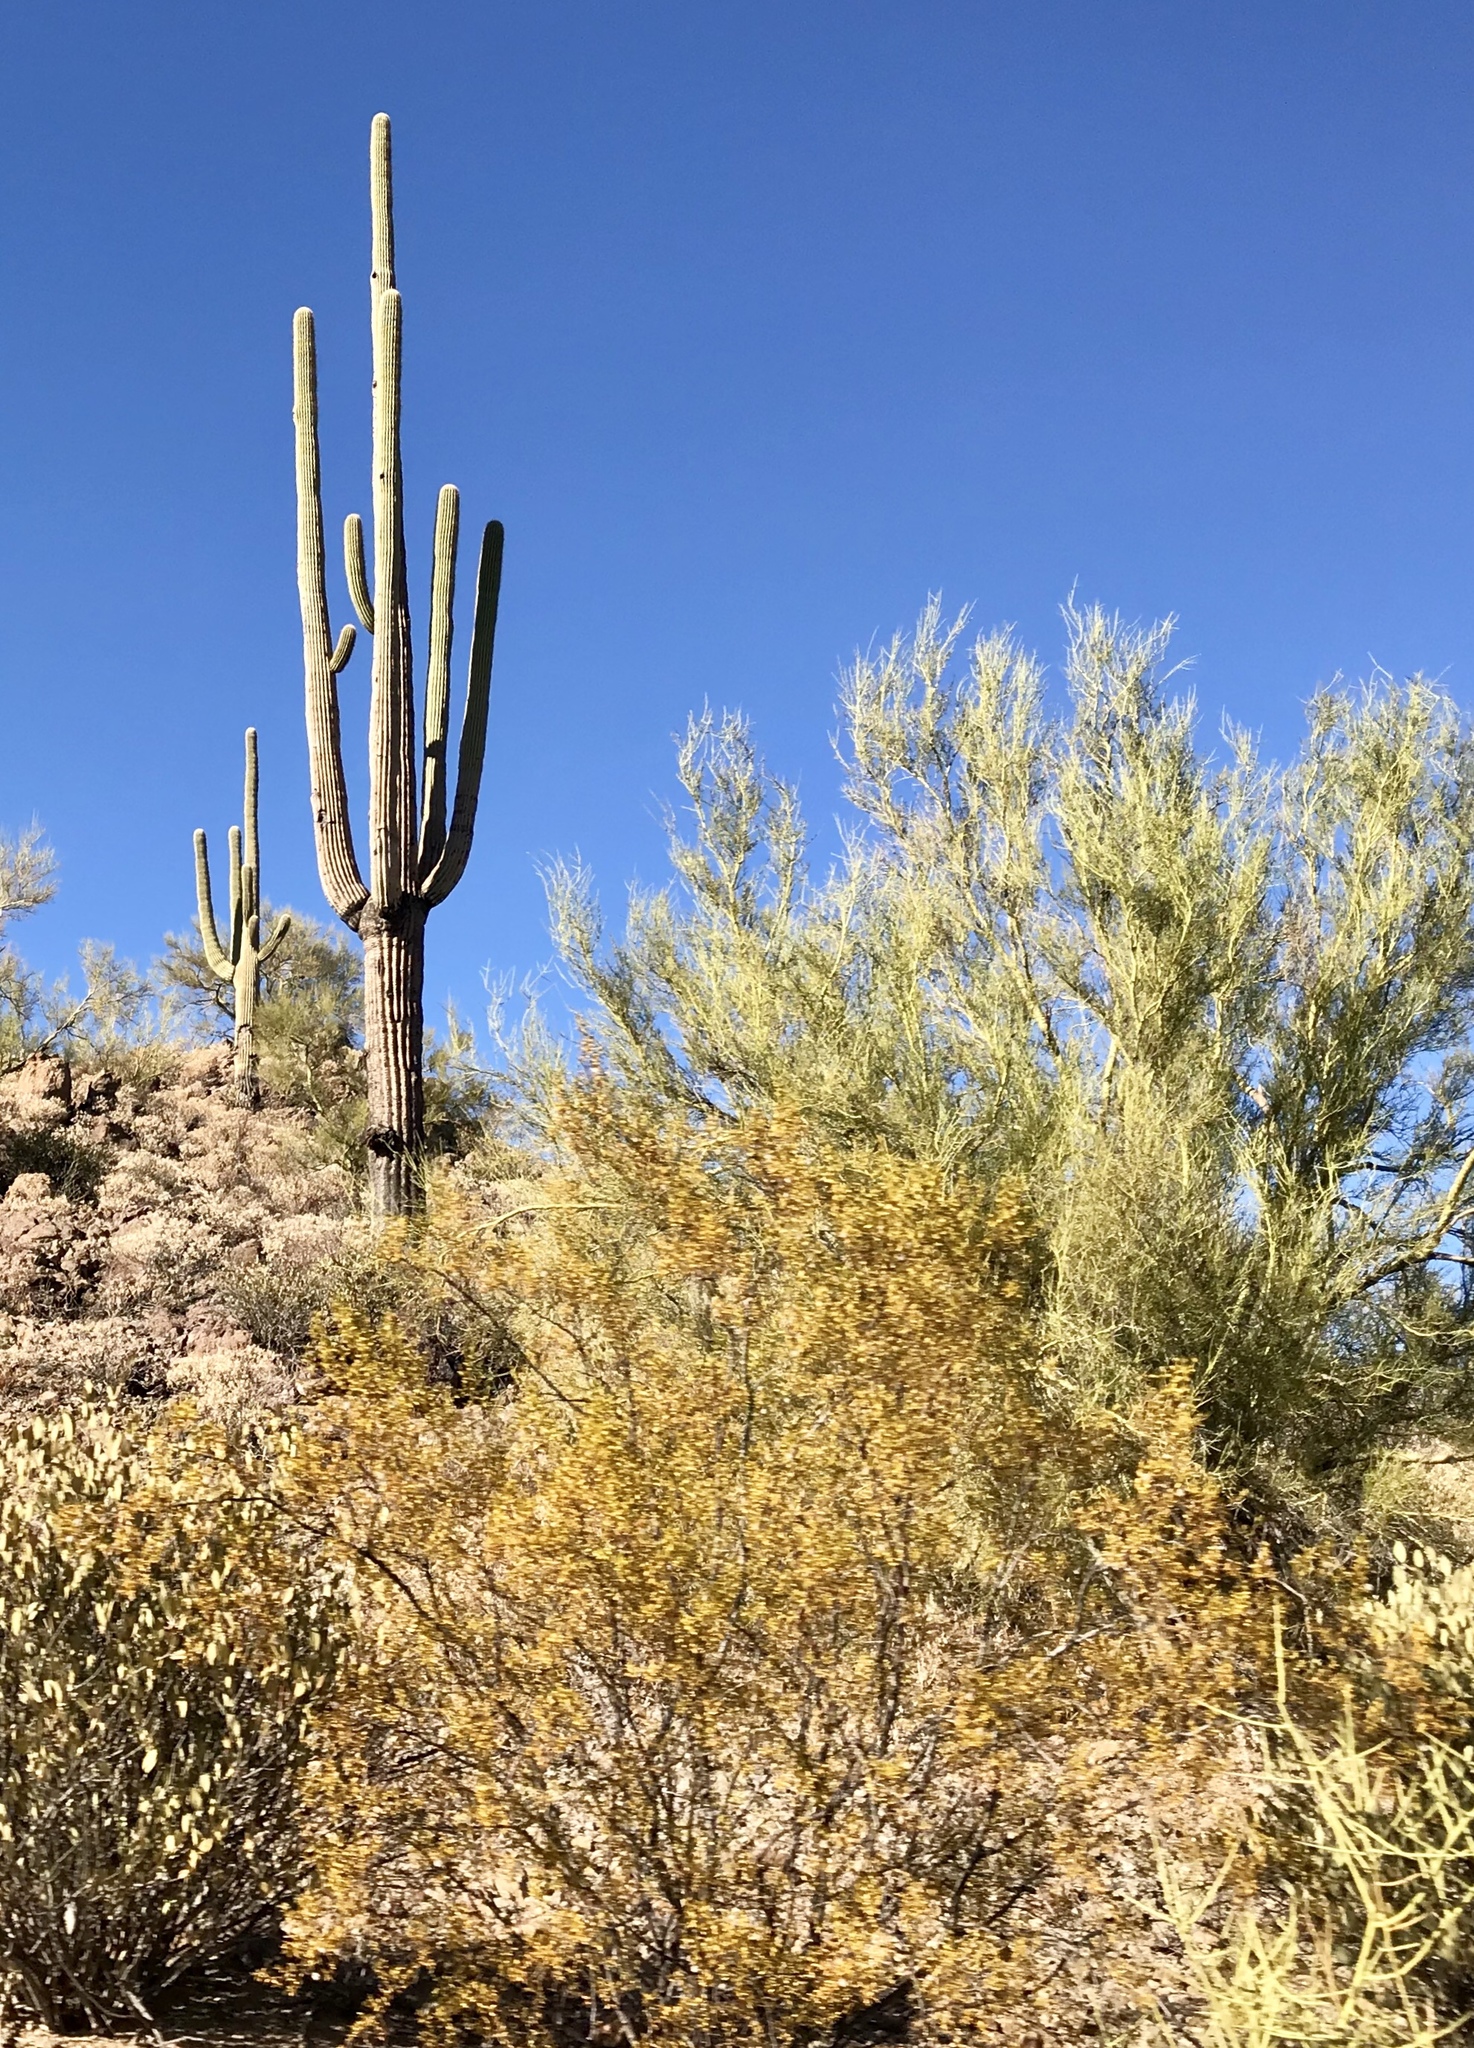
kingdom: Plantae
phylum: Tracheophyta
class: Magnoliopsida
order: Zygophyllales
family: Zygophyllaceae
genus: Larrea
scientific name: Larrea tridentata
